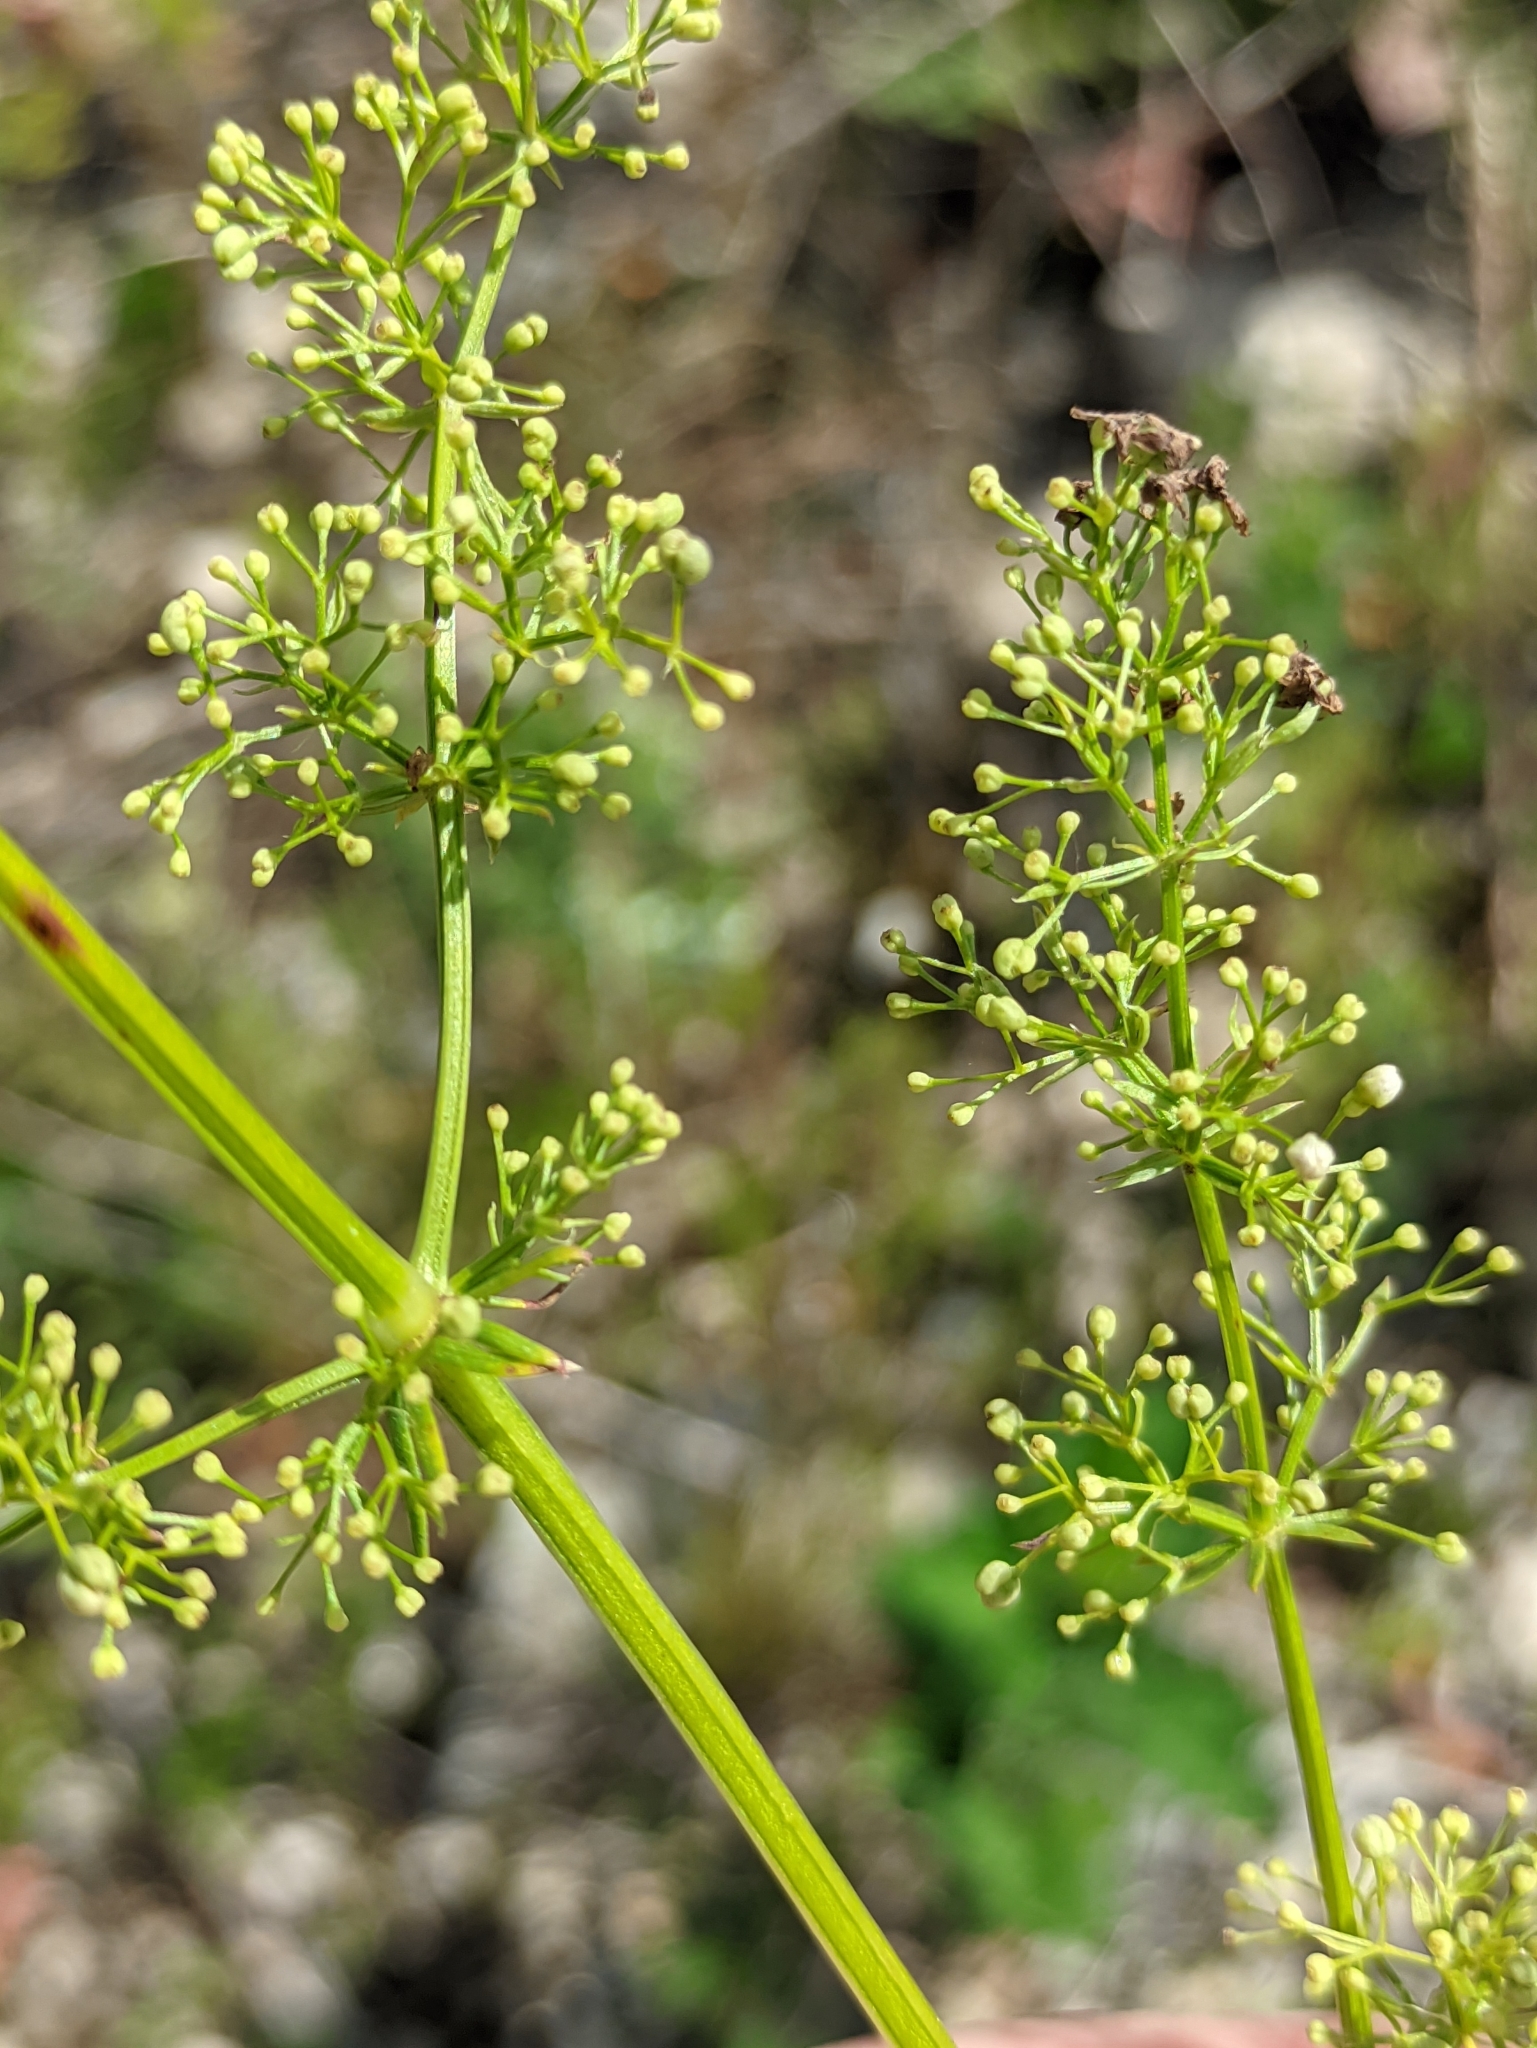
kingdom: Plantae
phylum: Tracheophyta
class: Magnoliopsida
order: Gentianales
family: Rubiaceae
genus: Galium
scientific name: Galium mollugo
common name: Hedge bedstraw
